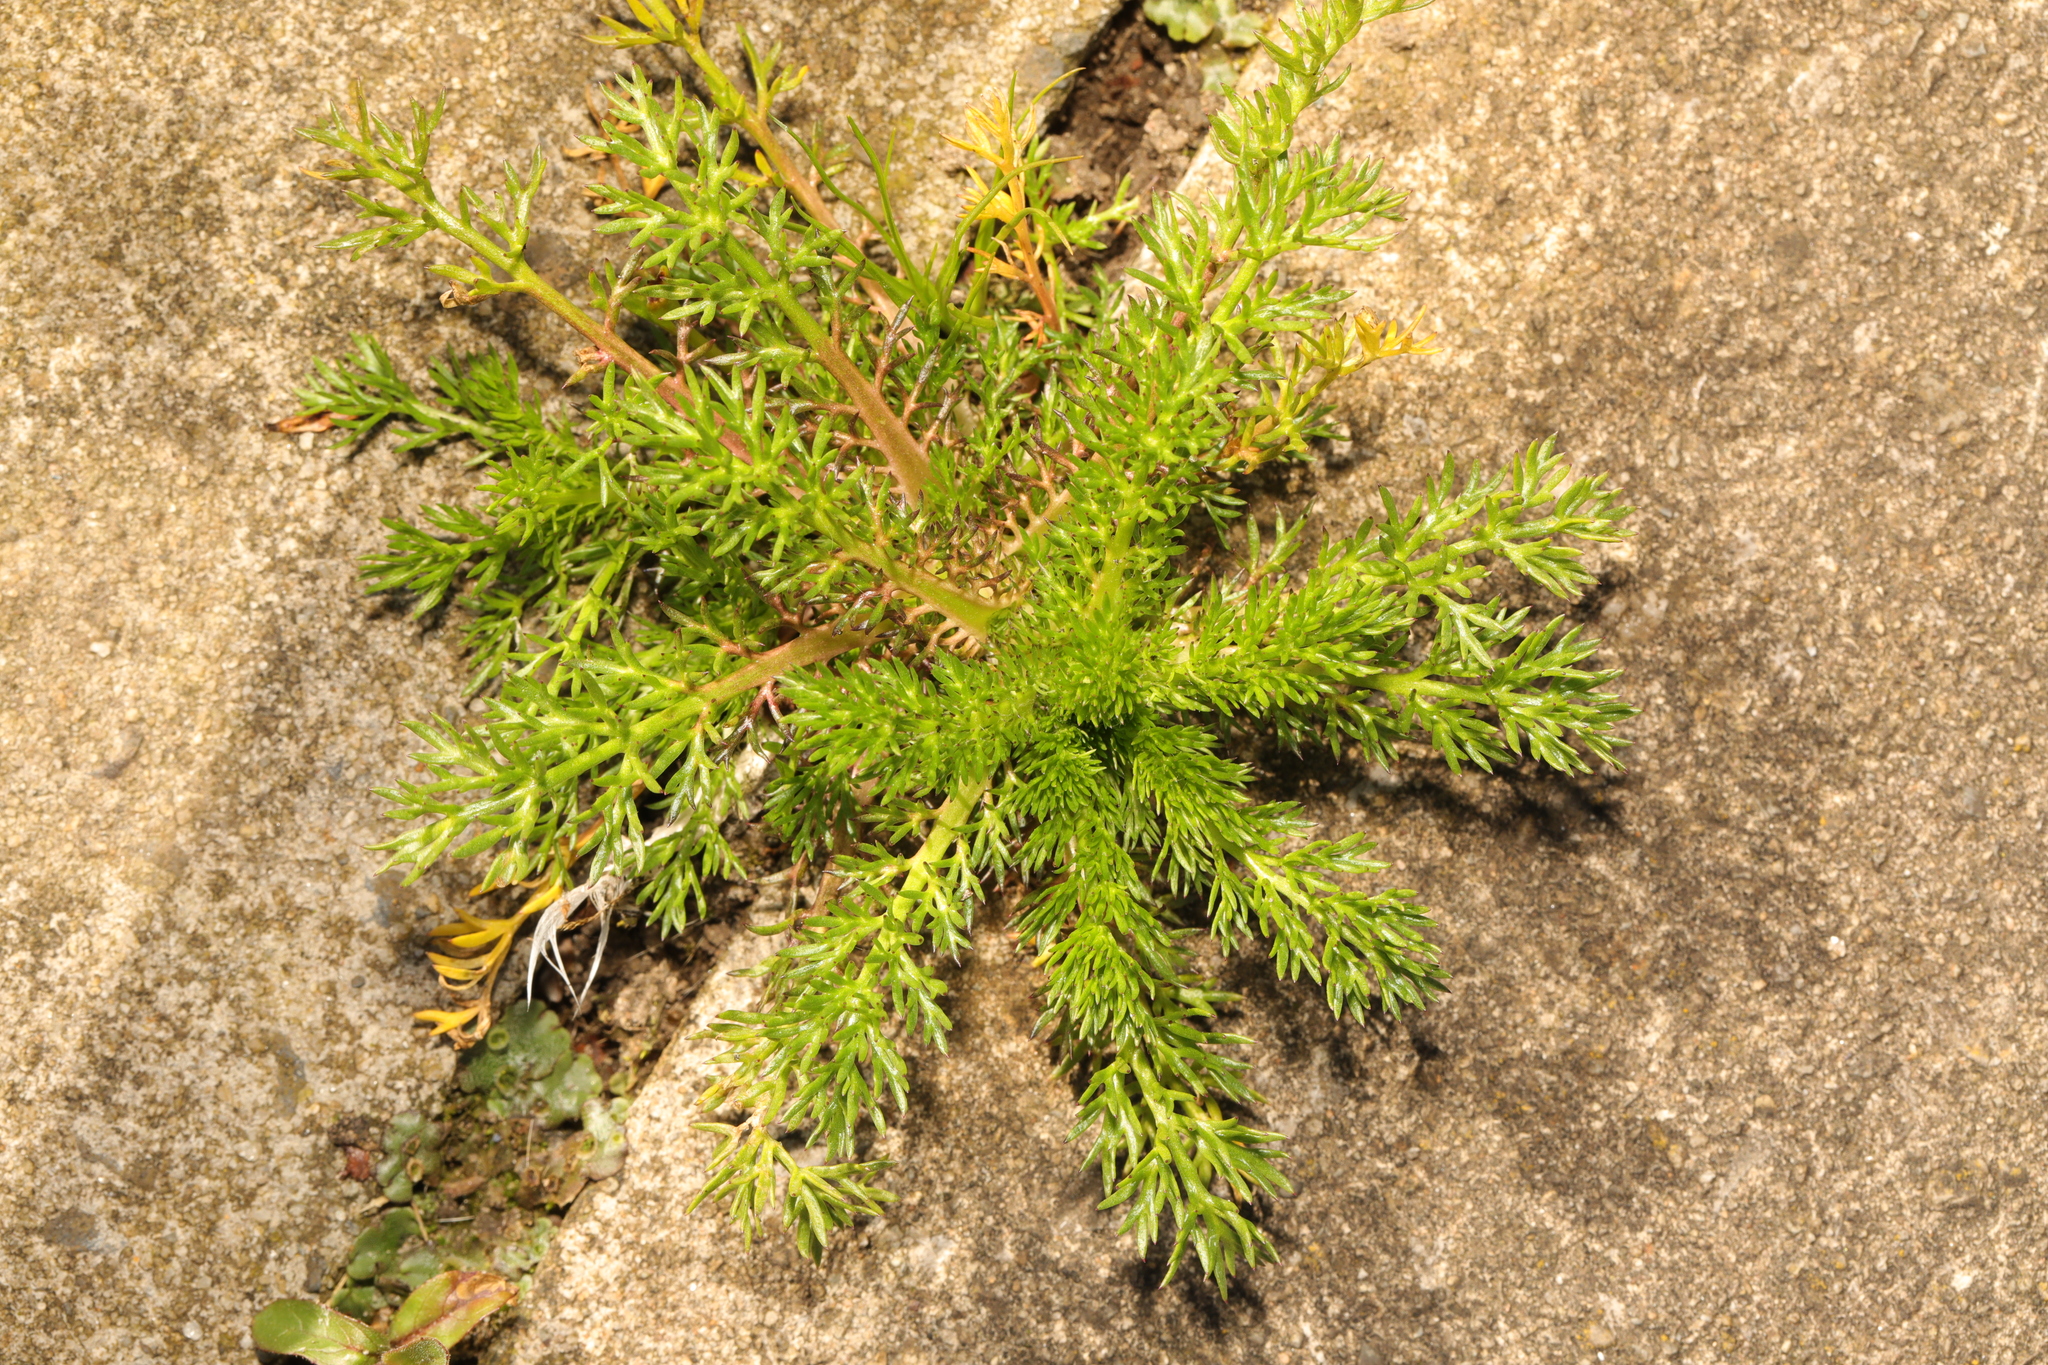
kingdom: Plantae
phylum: Tracheophyta
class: Magnoliopsida
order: Asterales
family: Asteraceae
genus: Matricaria
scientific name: Matricaria discoidea
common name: Disc mayweed
